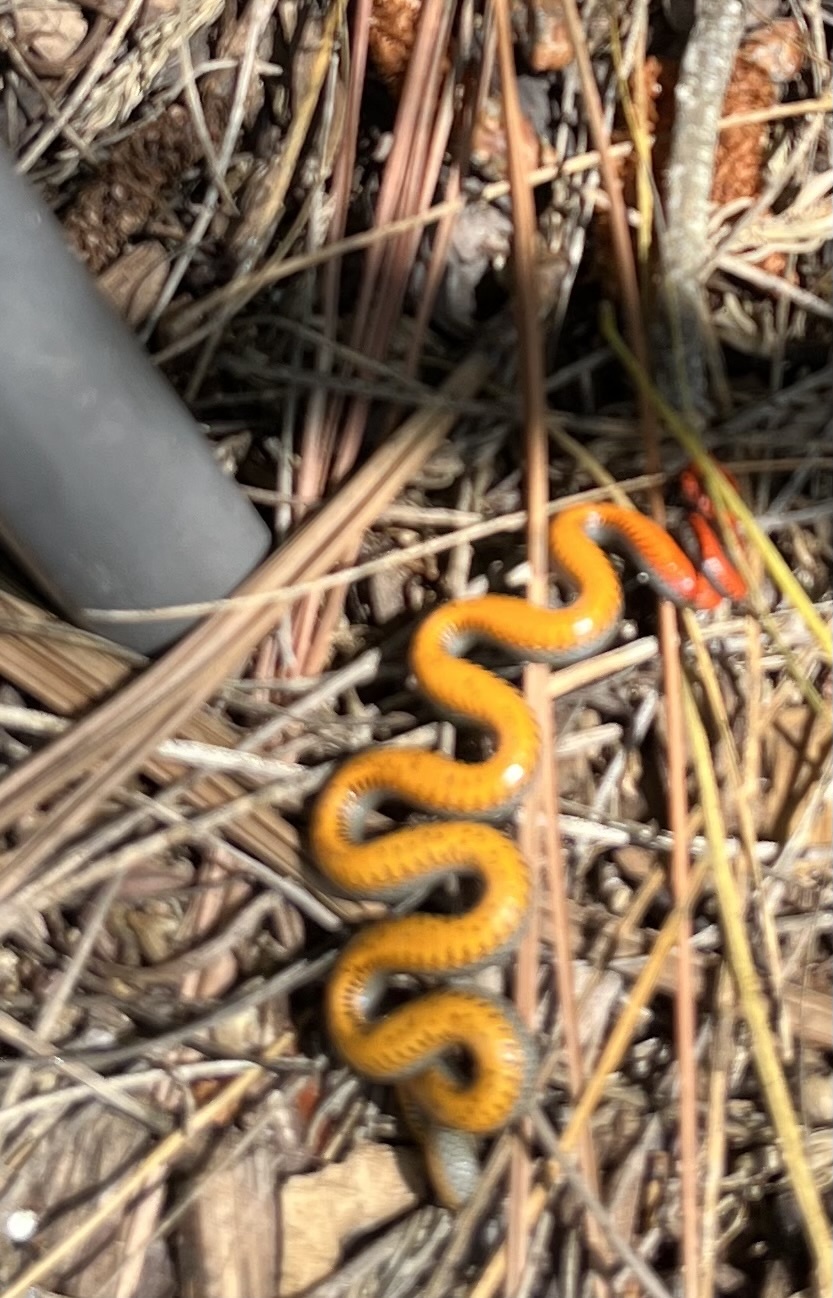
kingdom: Animalia
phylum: Chordata
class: Squamata
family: Colubridae
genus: Diadophis
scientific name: Diadophis punctatus
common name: Ringneck snake
